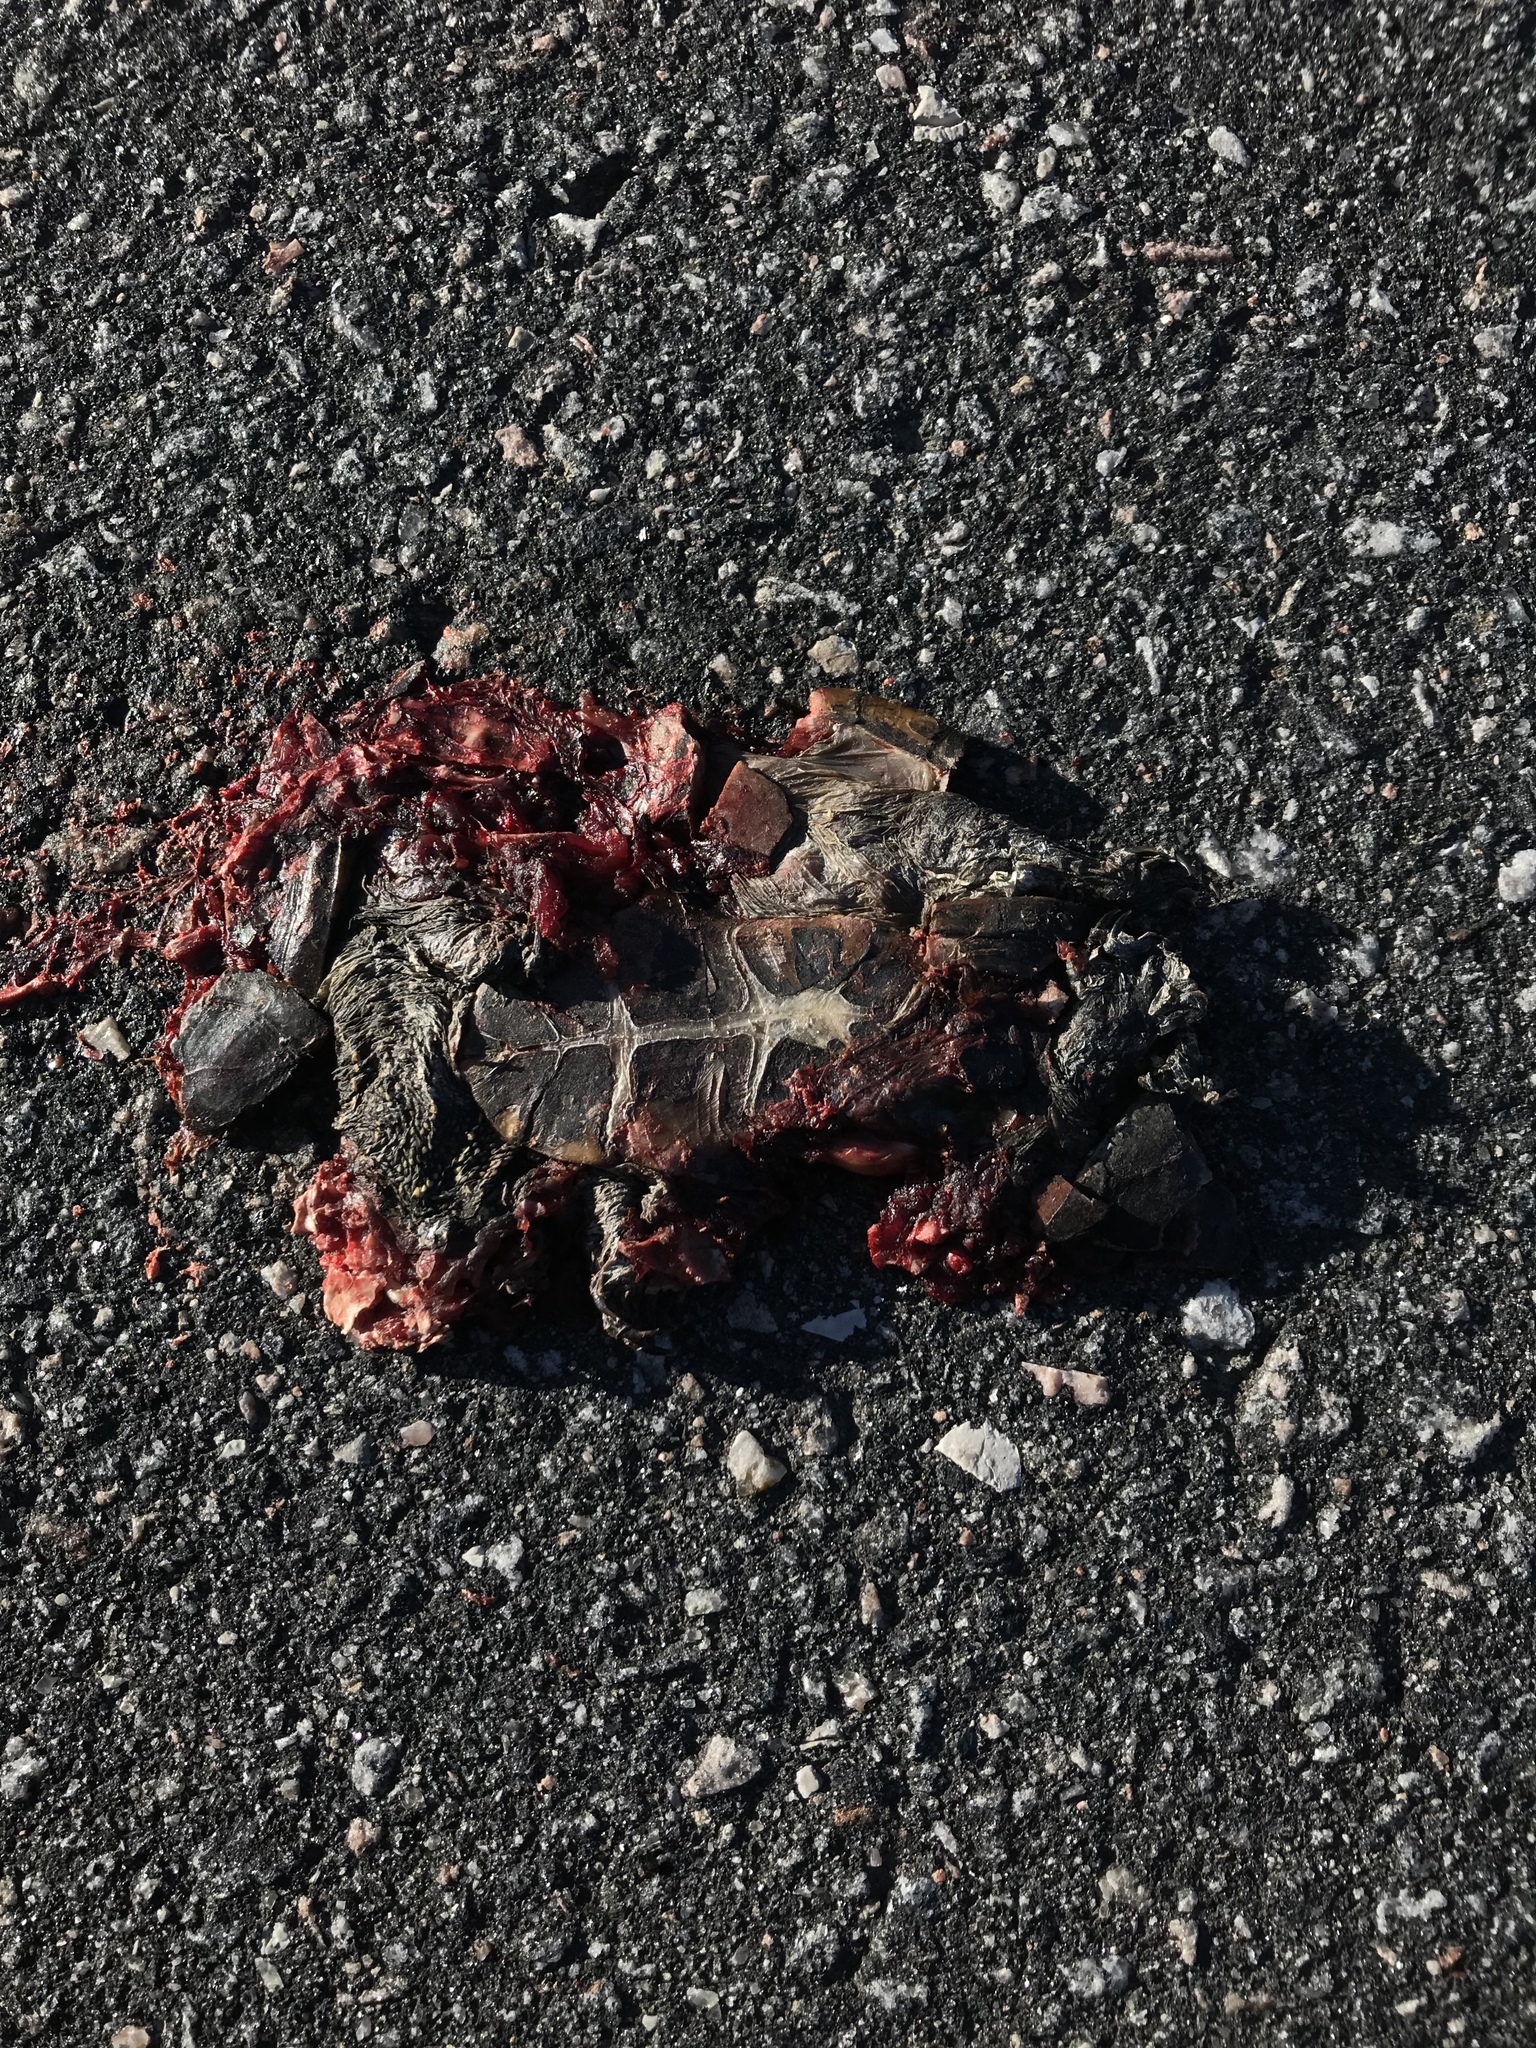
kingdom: Animalia
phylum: Chordata
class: Testudines
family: Kinosternidae
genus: Sternotherus
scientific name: Sternotherus odoratus
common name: Common musk turtle
